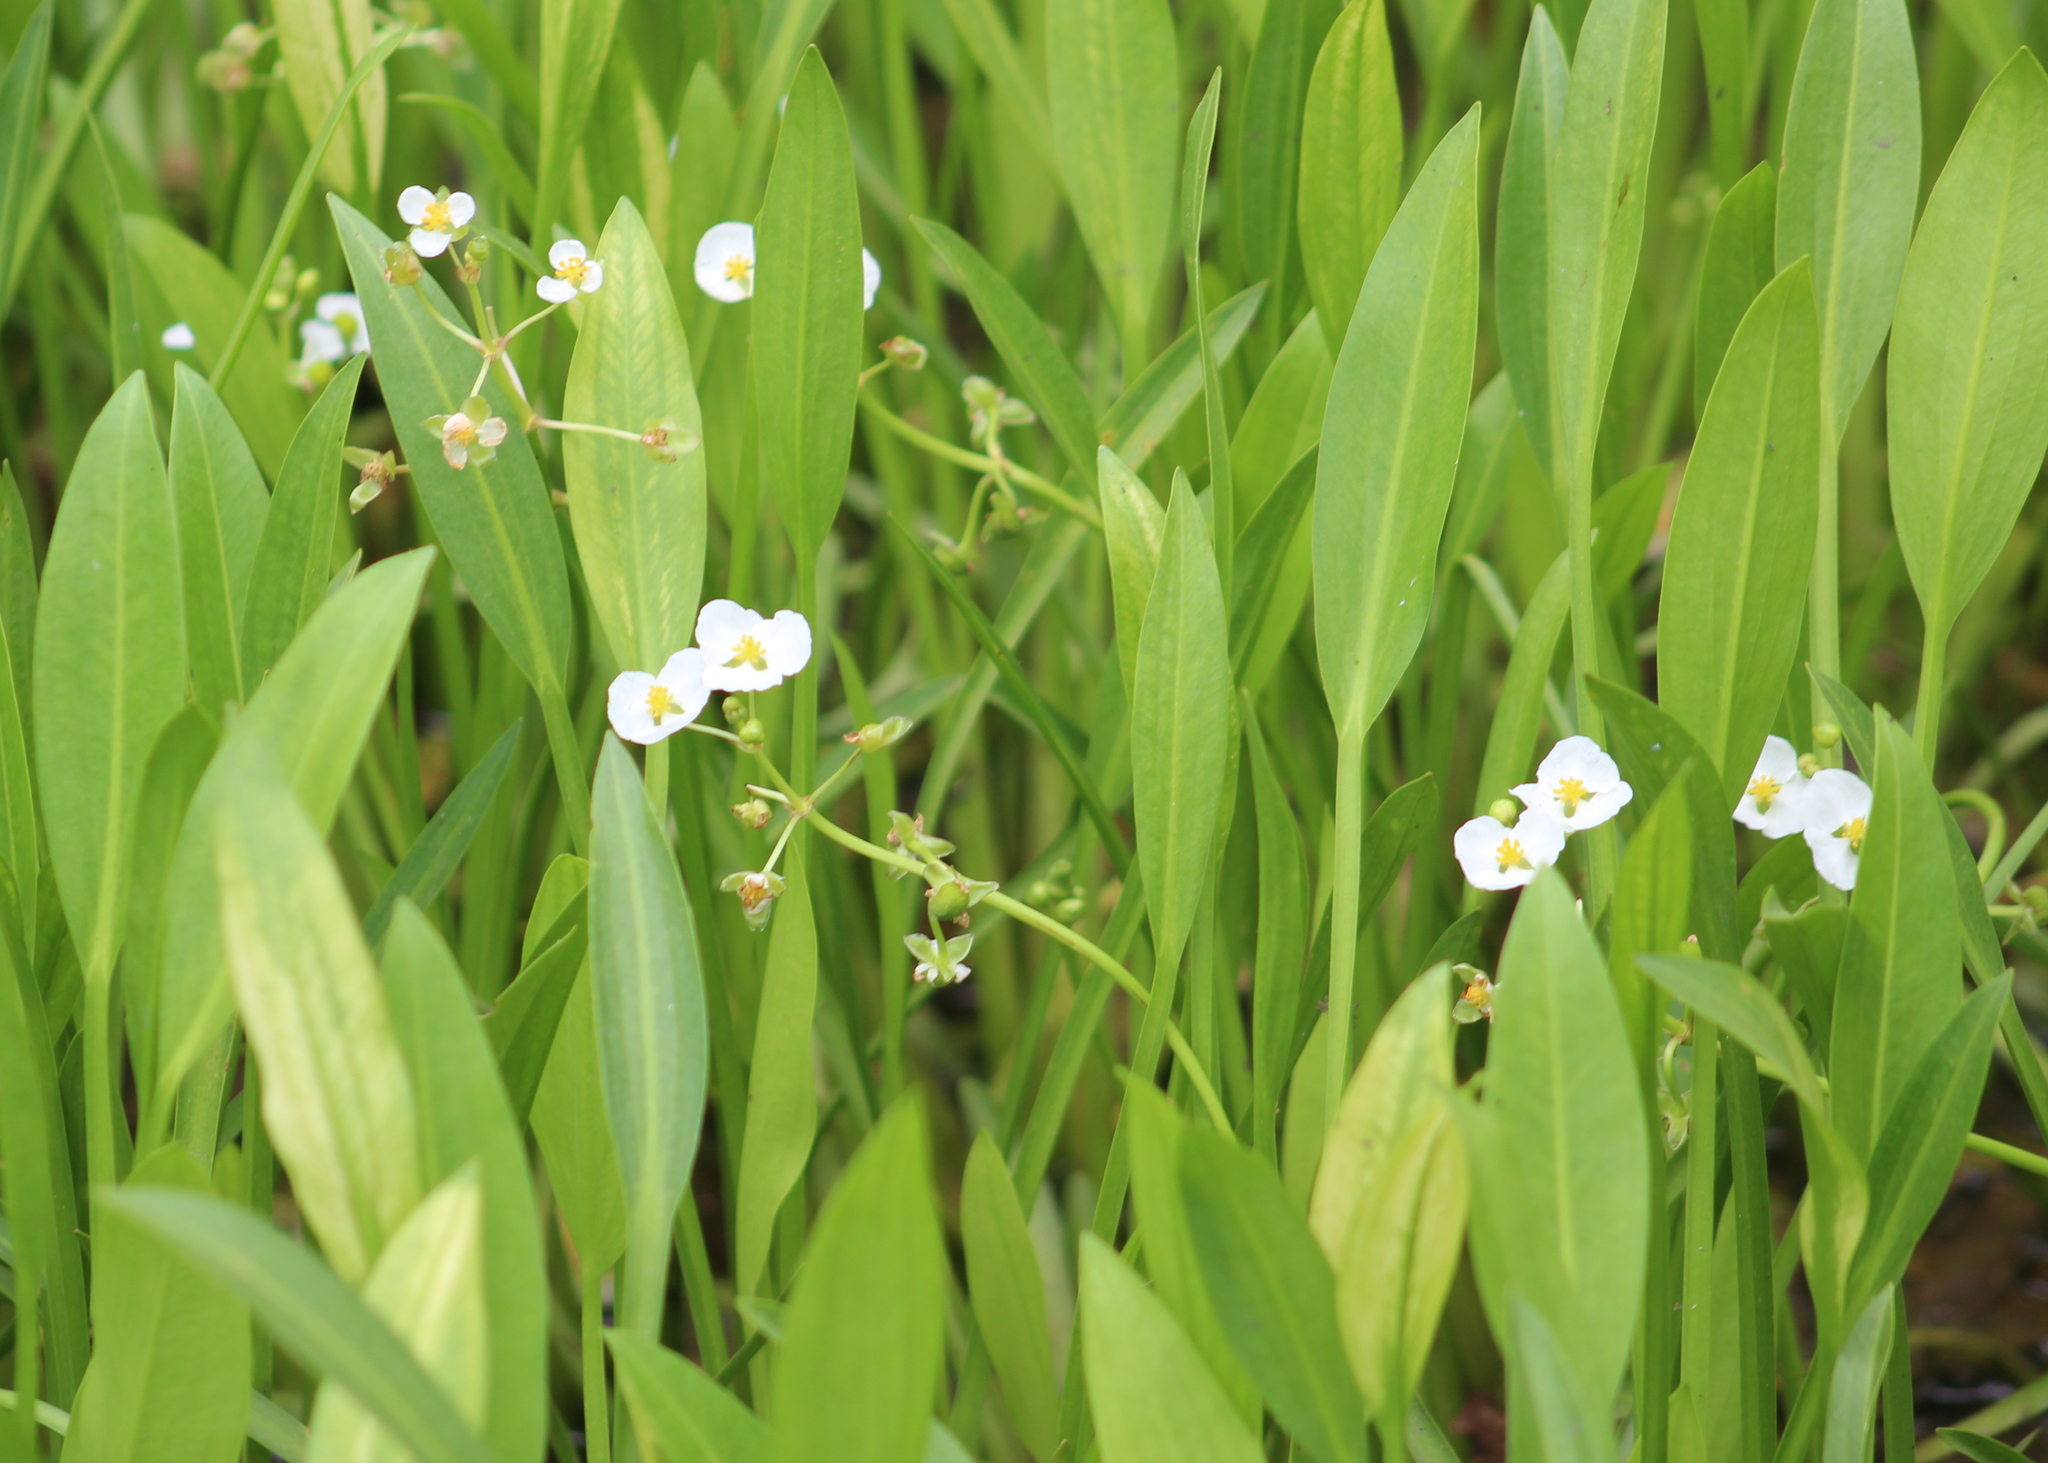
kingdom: Plantae
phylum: Tracheophyta
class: Liliopsida
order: Alismatales
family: Alismataceae
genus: Sagittaria
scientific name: Sagittaria platyphylla
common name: Broad-leaf arrowhead
